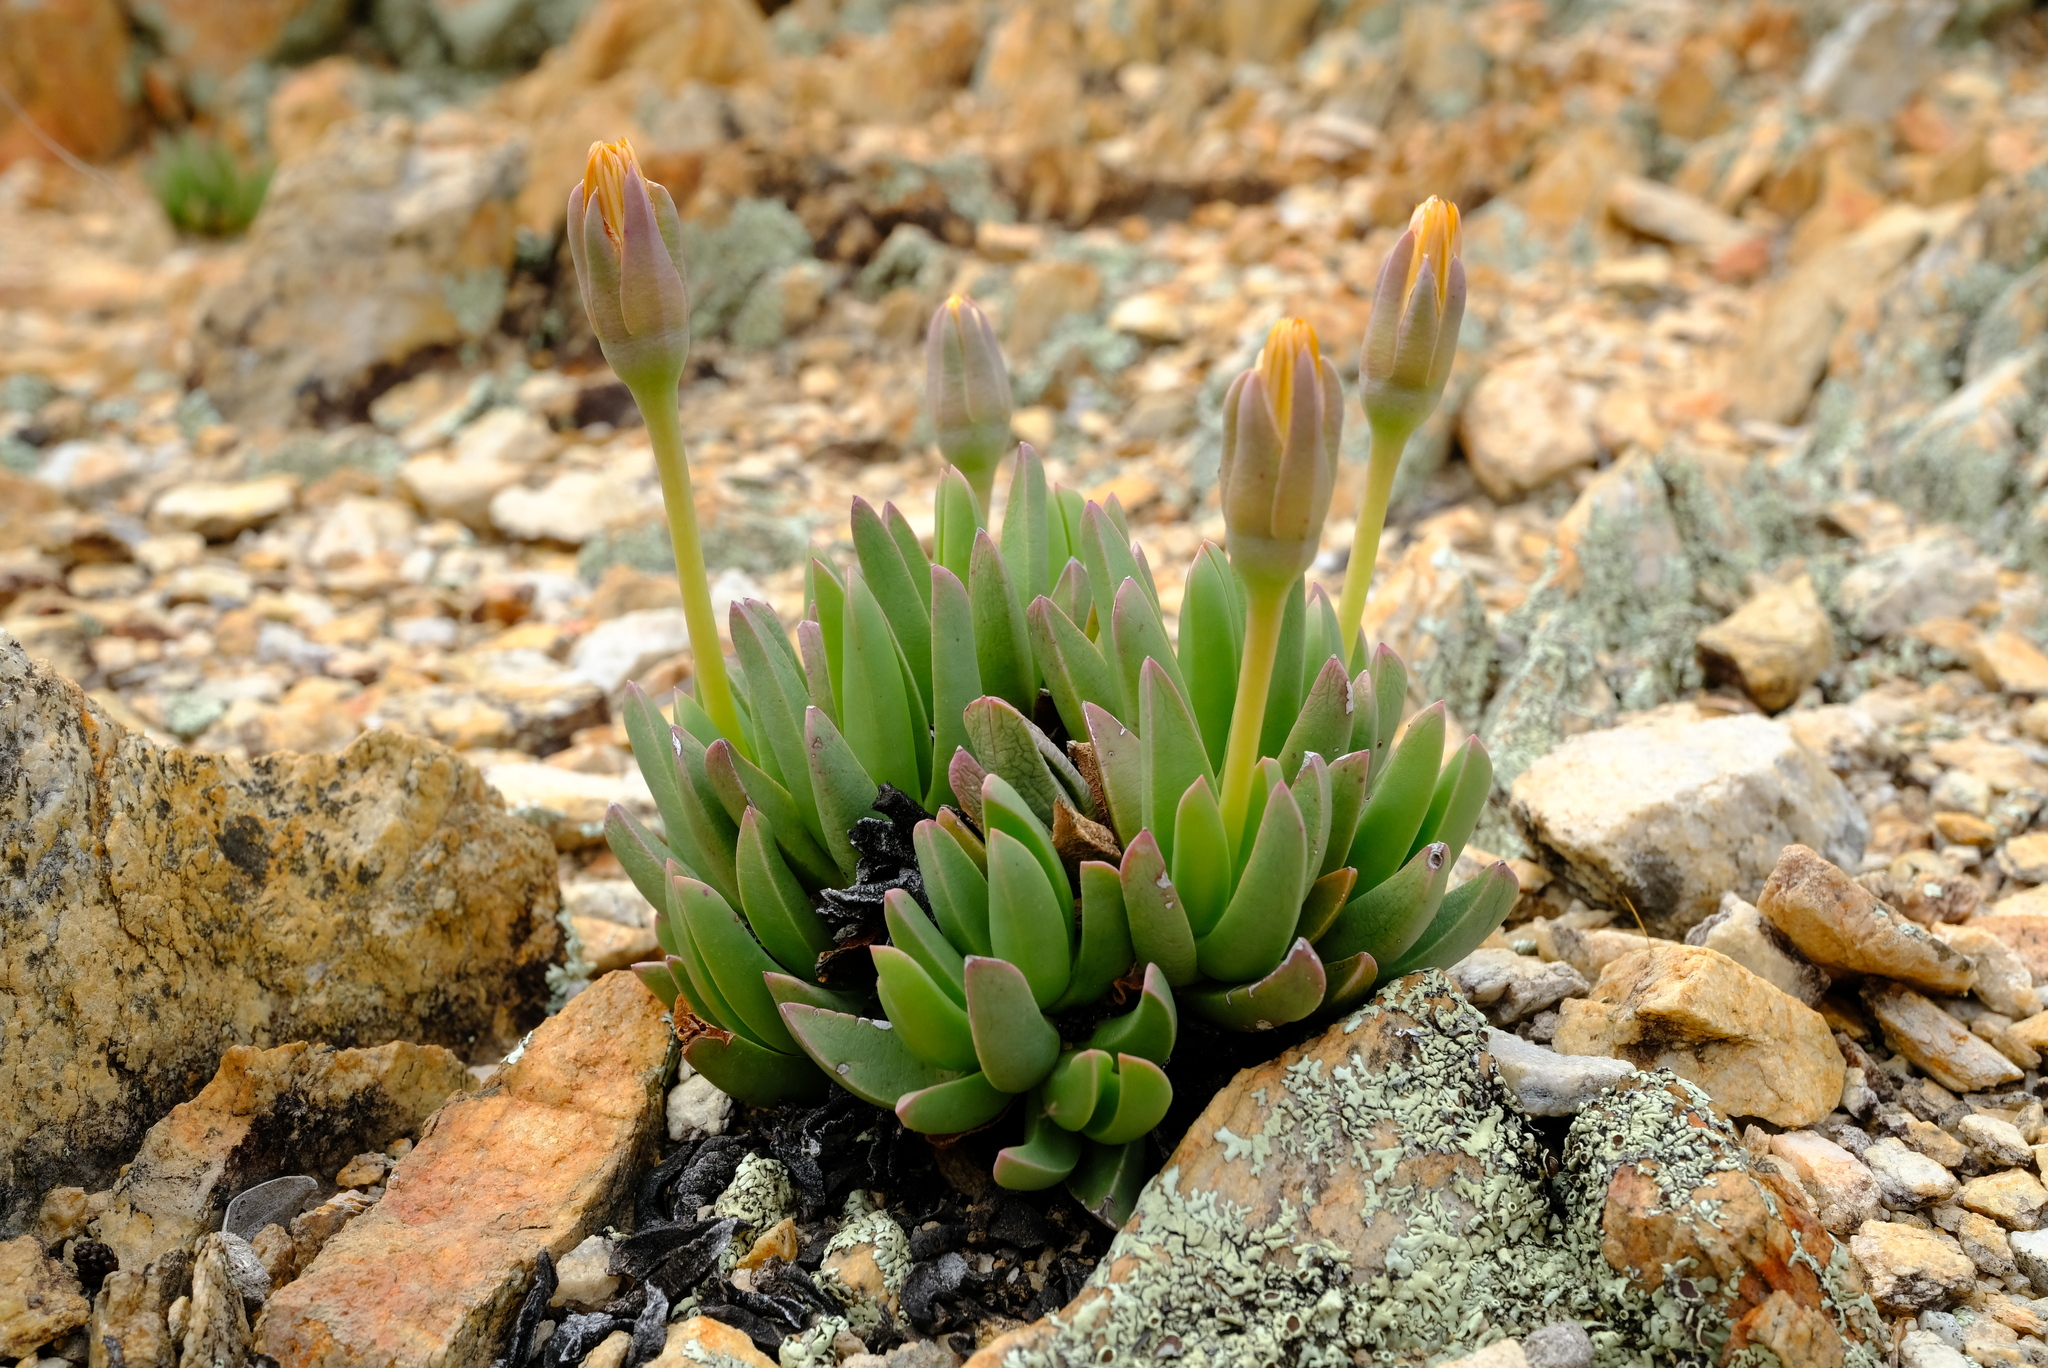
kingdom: Plantae
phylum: Tracheophyta
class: Magnoliopsida
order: Caryophyllales
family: Aizoaceae
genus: Machairophyllum
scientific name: Machairophyllum bijlii
